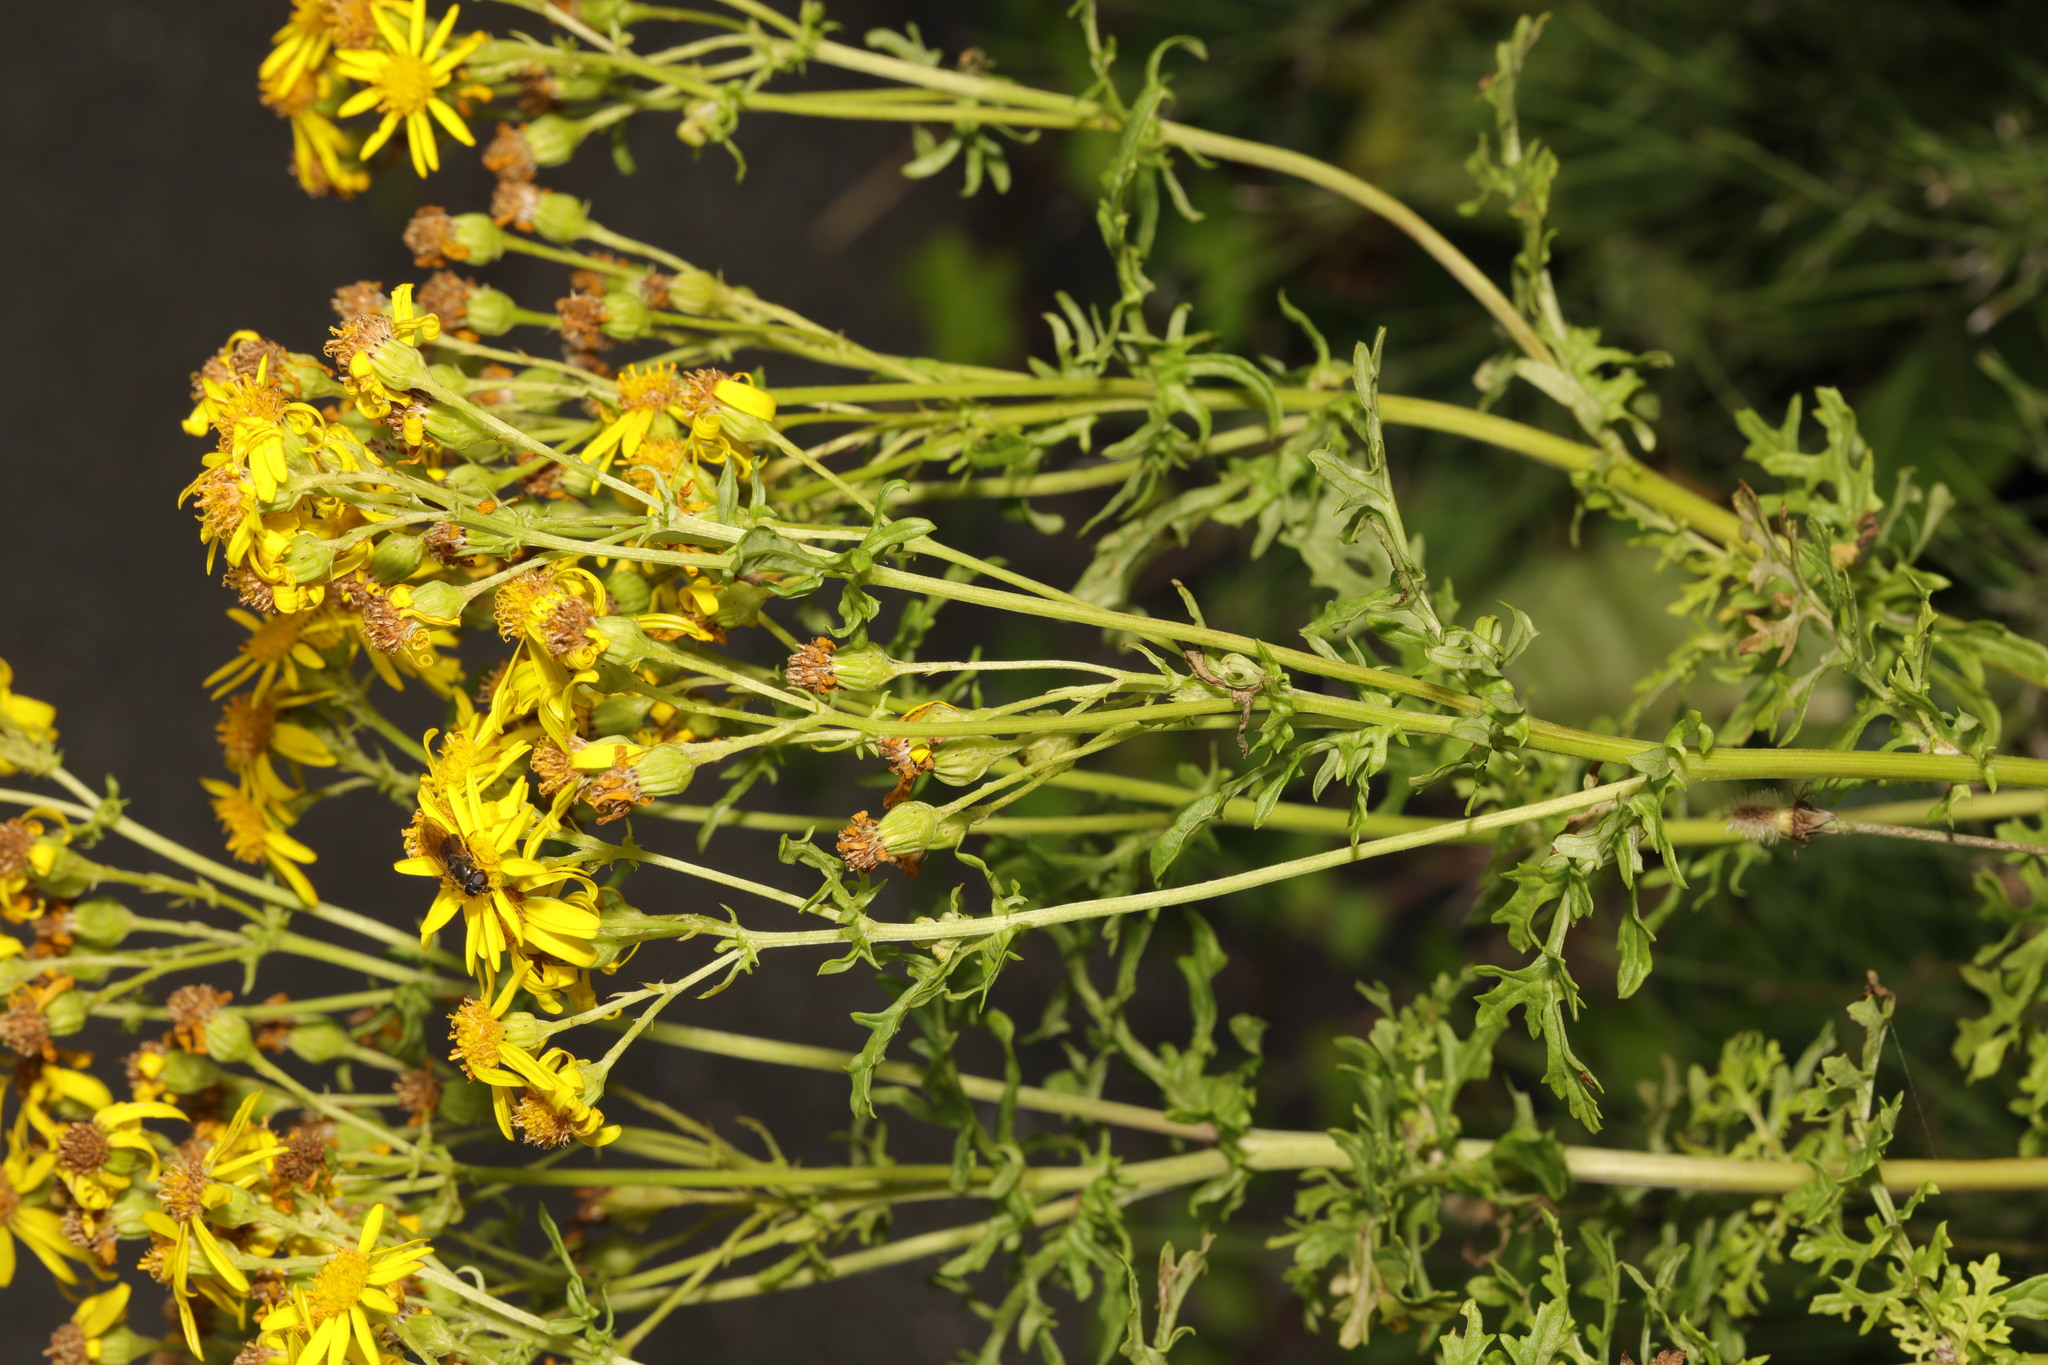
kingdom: Plantae
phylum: Tracheophyta
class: Magnoliopsida
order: Asterales
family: Asteraceae
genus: Jacobaea
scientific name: Jacobaea vulgaris
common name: Stinking willie
